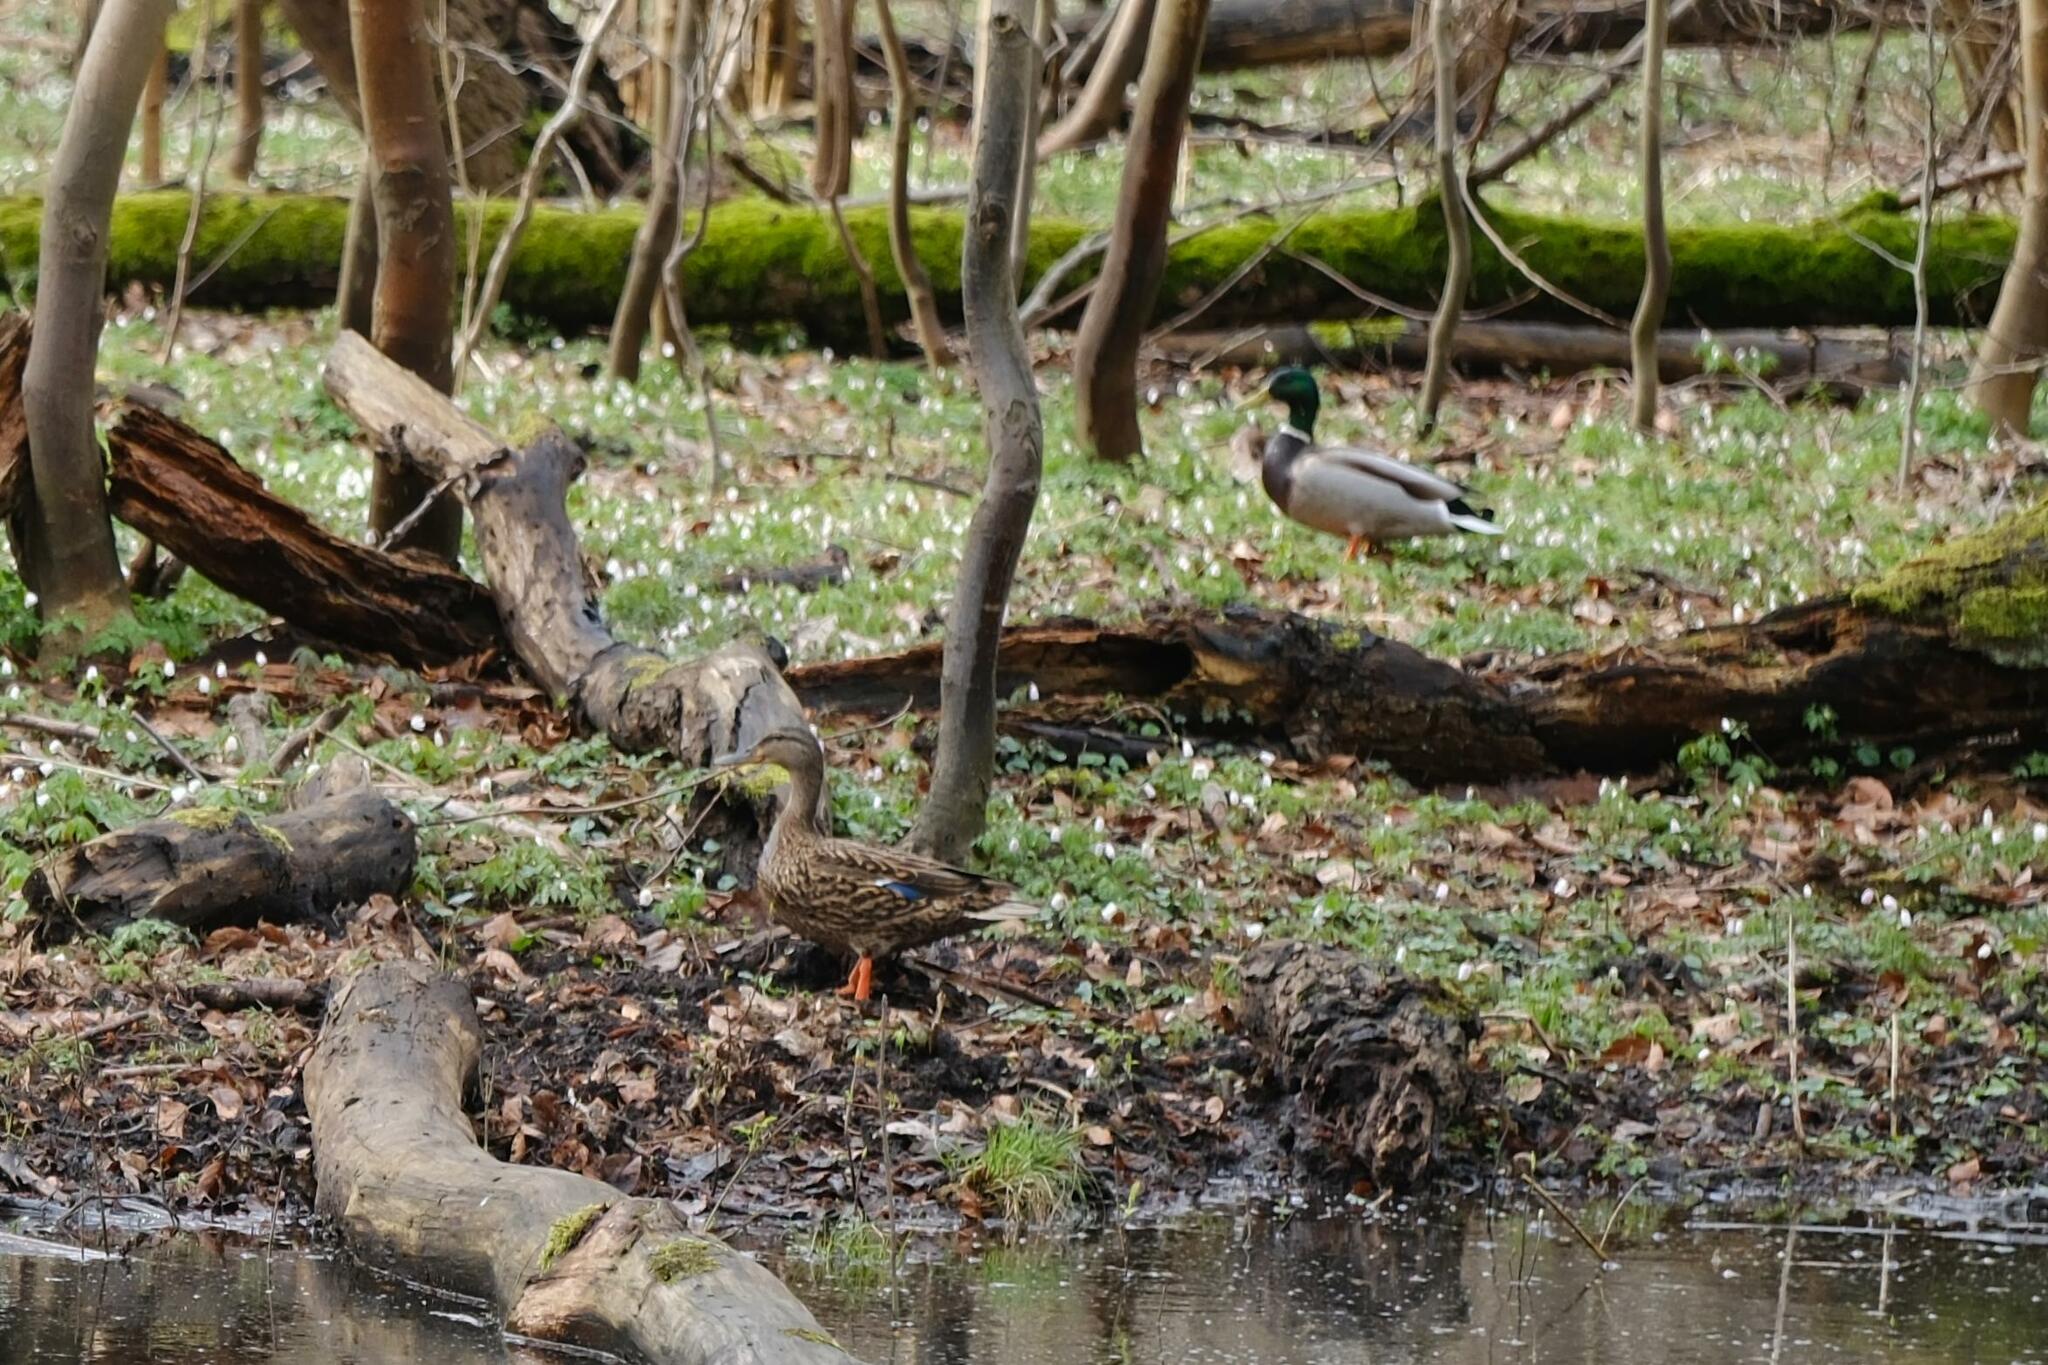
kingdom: Animalia
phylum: Chordata
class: Aves
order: Anseriformes
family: Anatidae
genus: Anas
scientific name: Anas platyrhynchos
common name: Mallard
